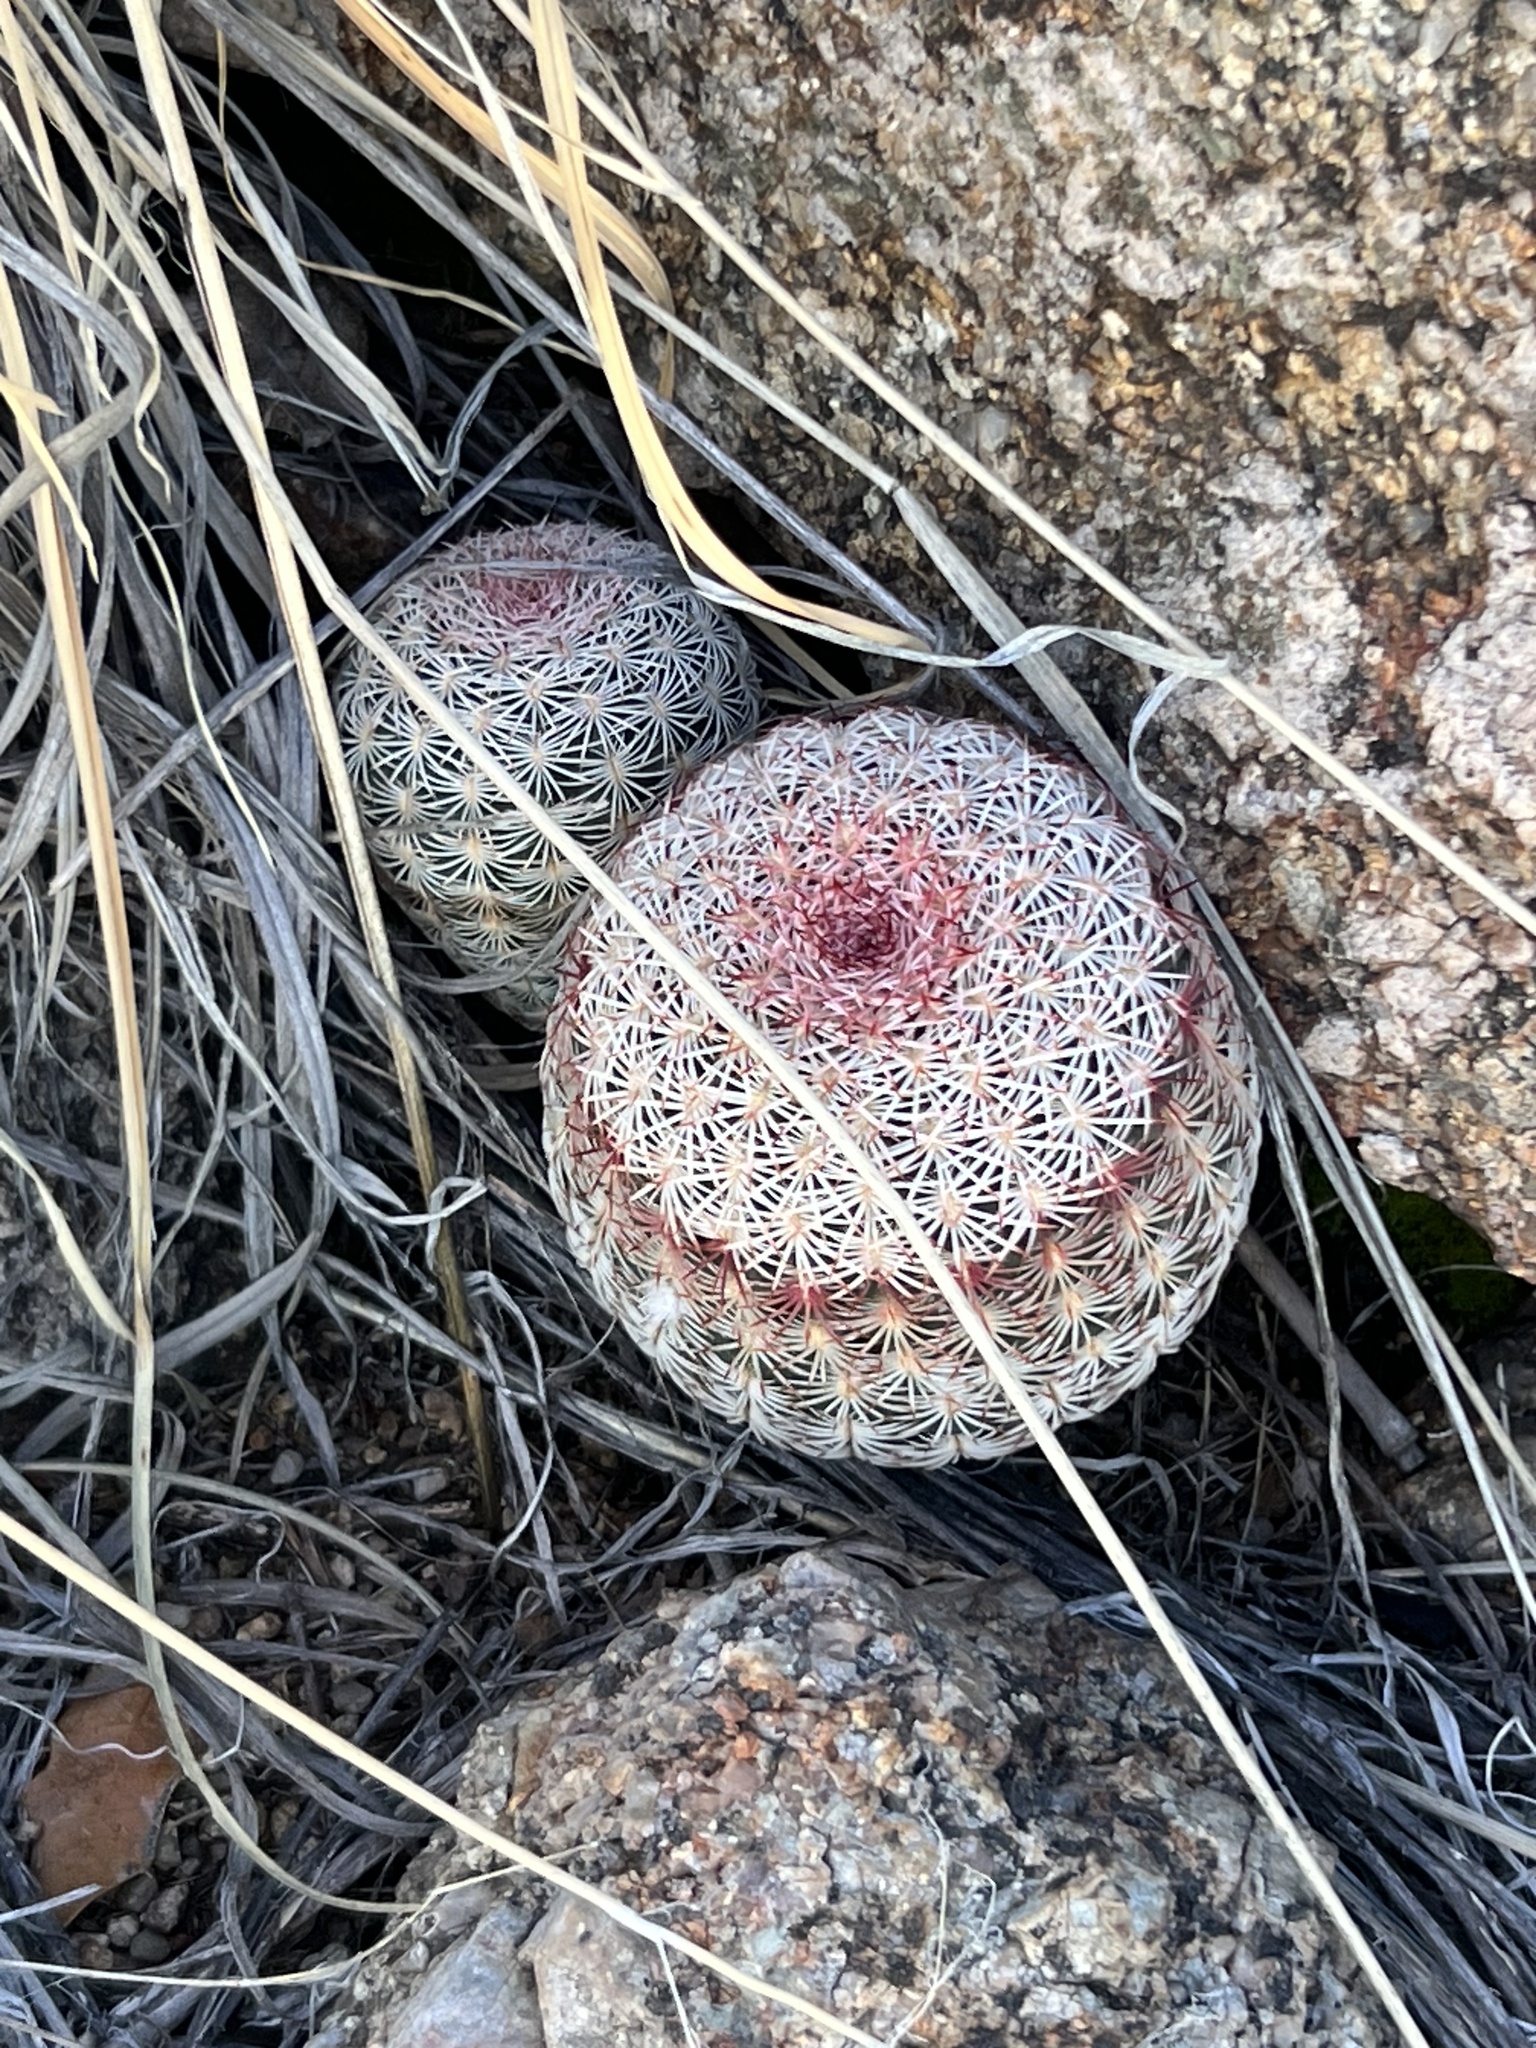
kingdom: Plantae
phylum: Tracheophyta
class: Magnoliopsida
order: Caryophyllales
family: Cactaceae
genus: Echinocereus
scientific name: Echinocereus rigidissimus
